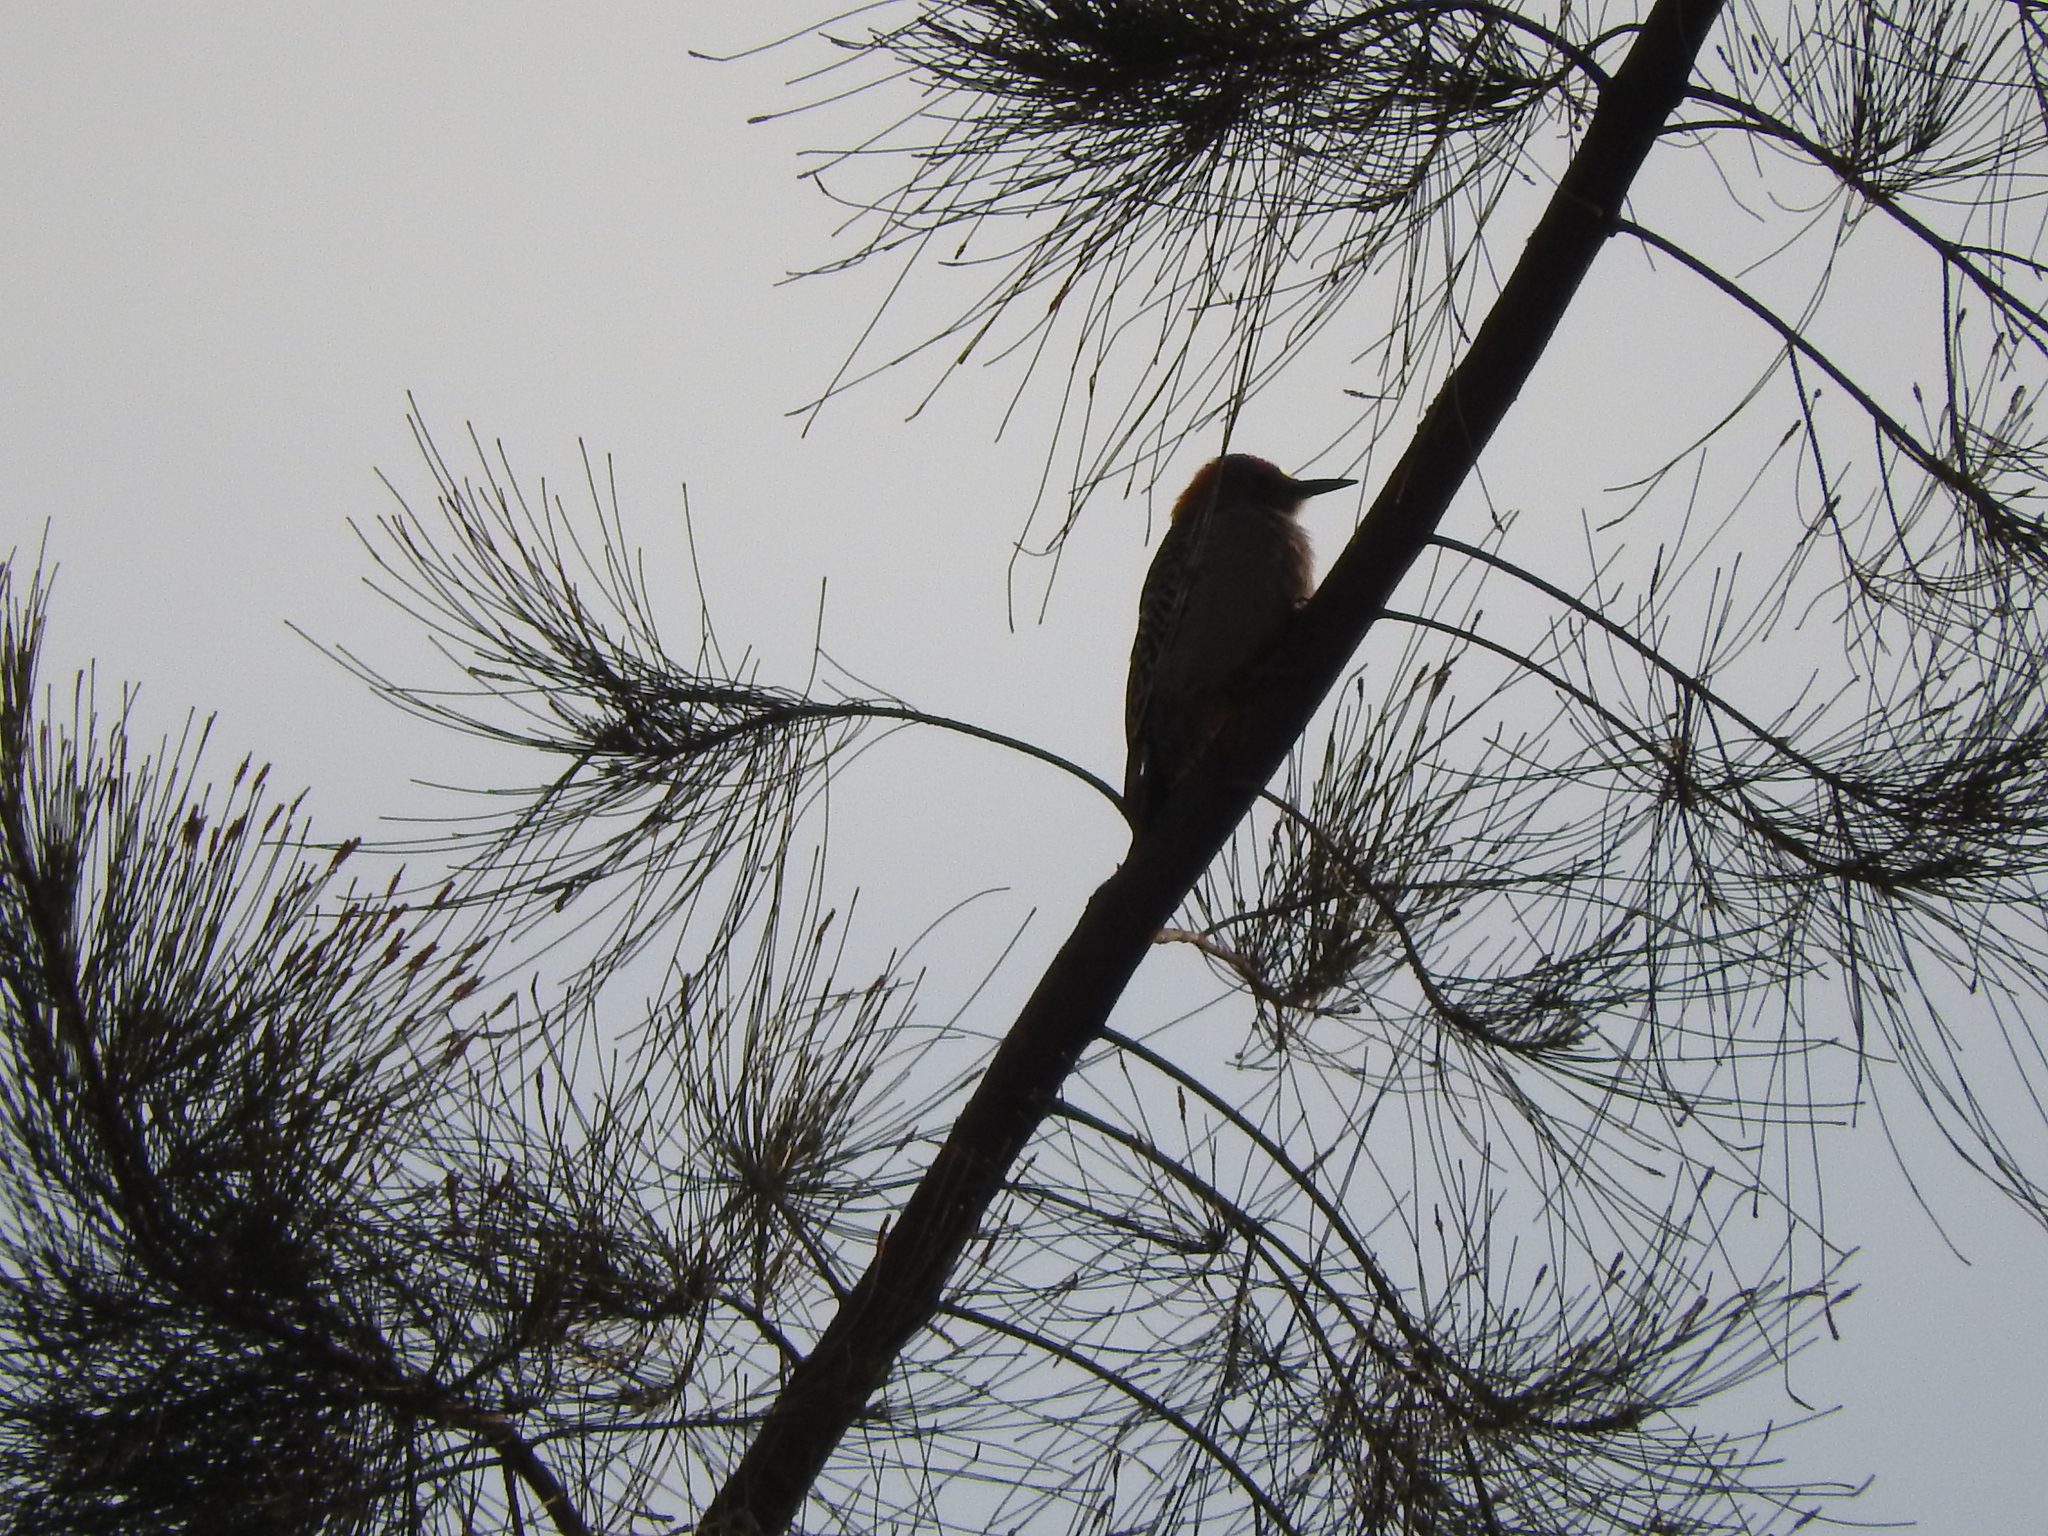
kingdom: Animalia
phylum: Chordata
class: Aves
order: Piciformes
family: Picidae
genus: Melanerpes
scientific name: Melanerpes aurifrons
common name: Golden-fronted woodpecker
